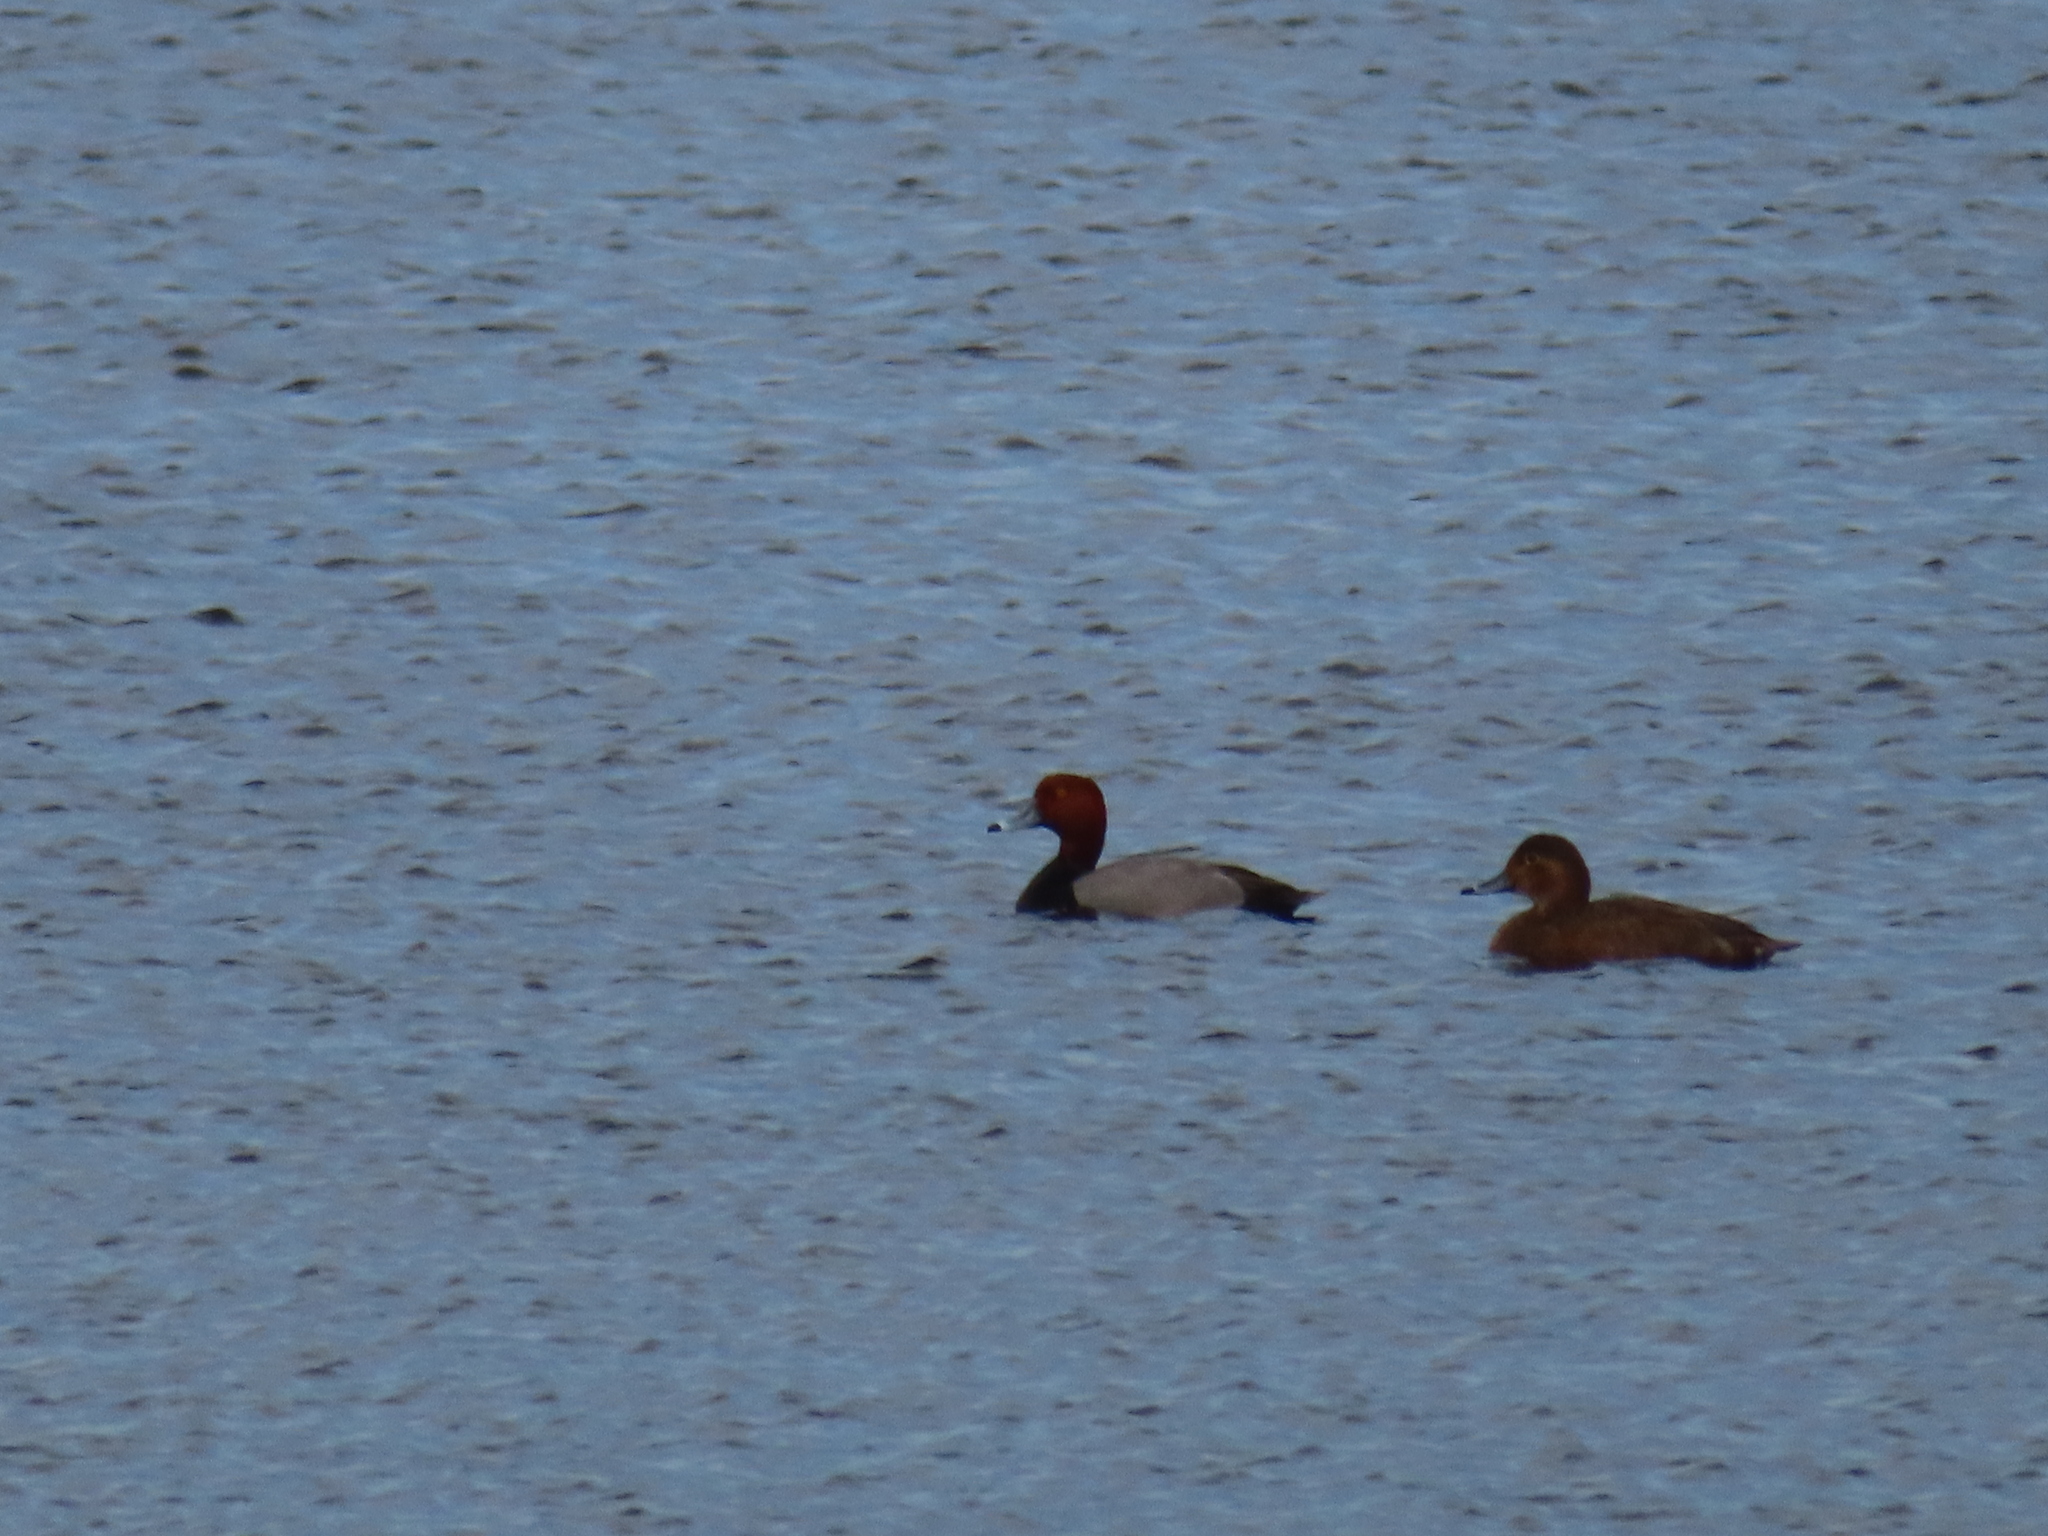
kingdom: Animalia
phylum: Chordata
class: Aves
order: Anseriformes
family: Anatidae
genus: Aythya
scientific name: Aythya americana
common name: Redhead
